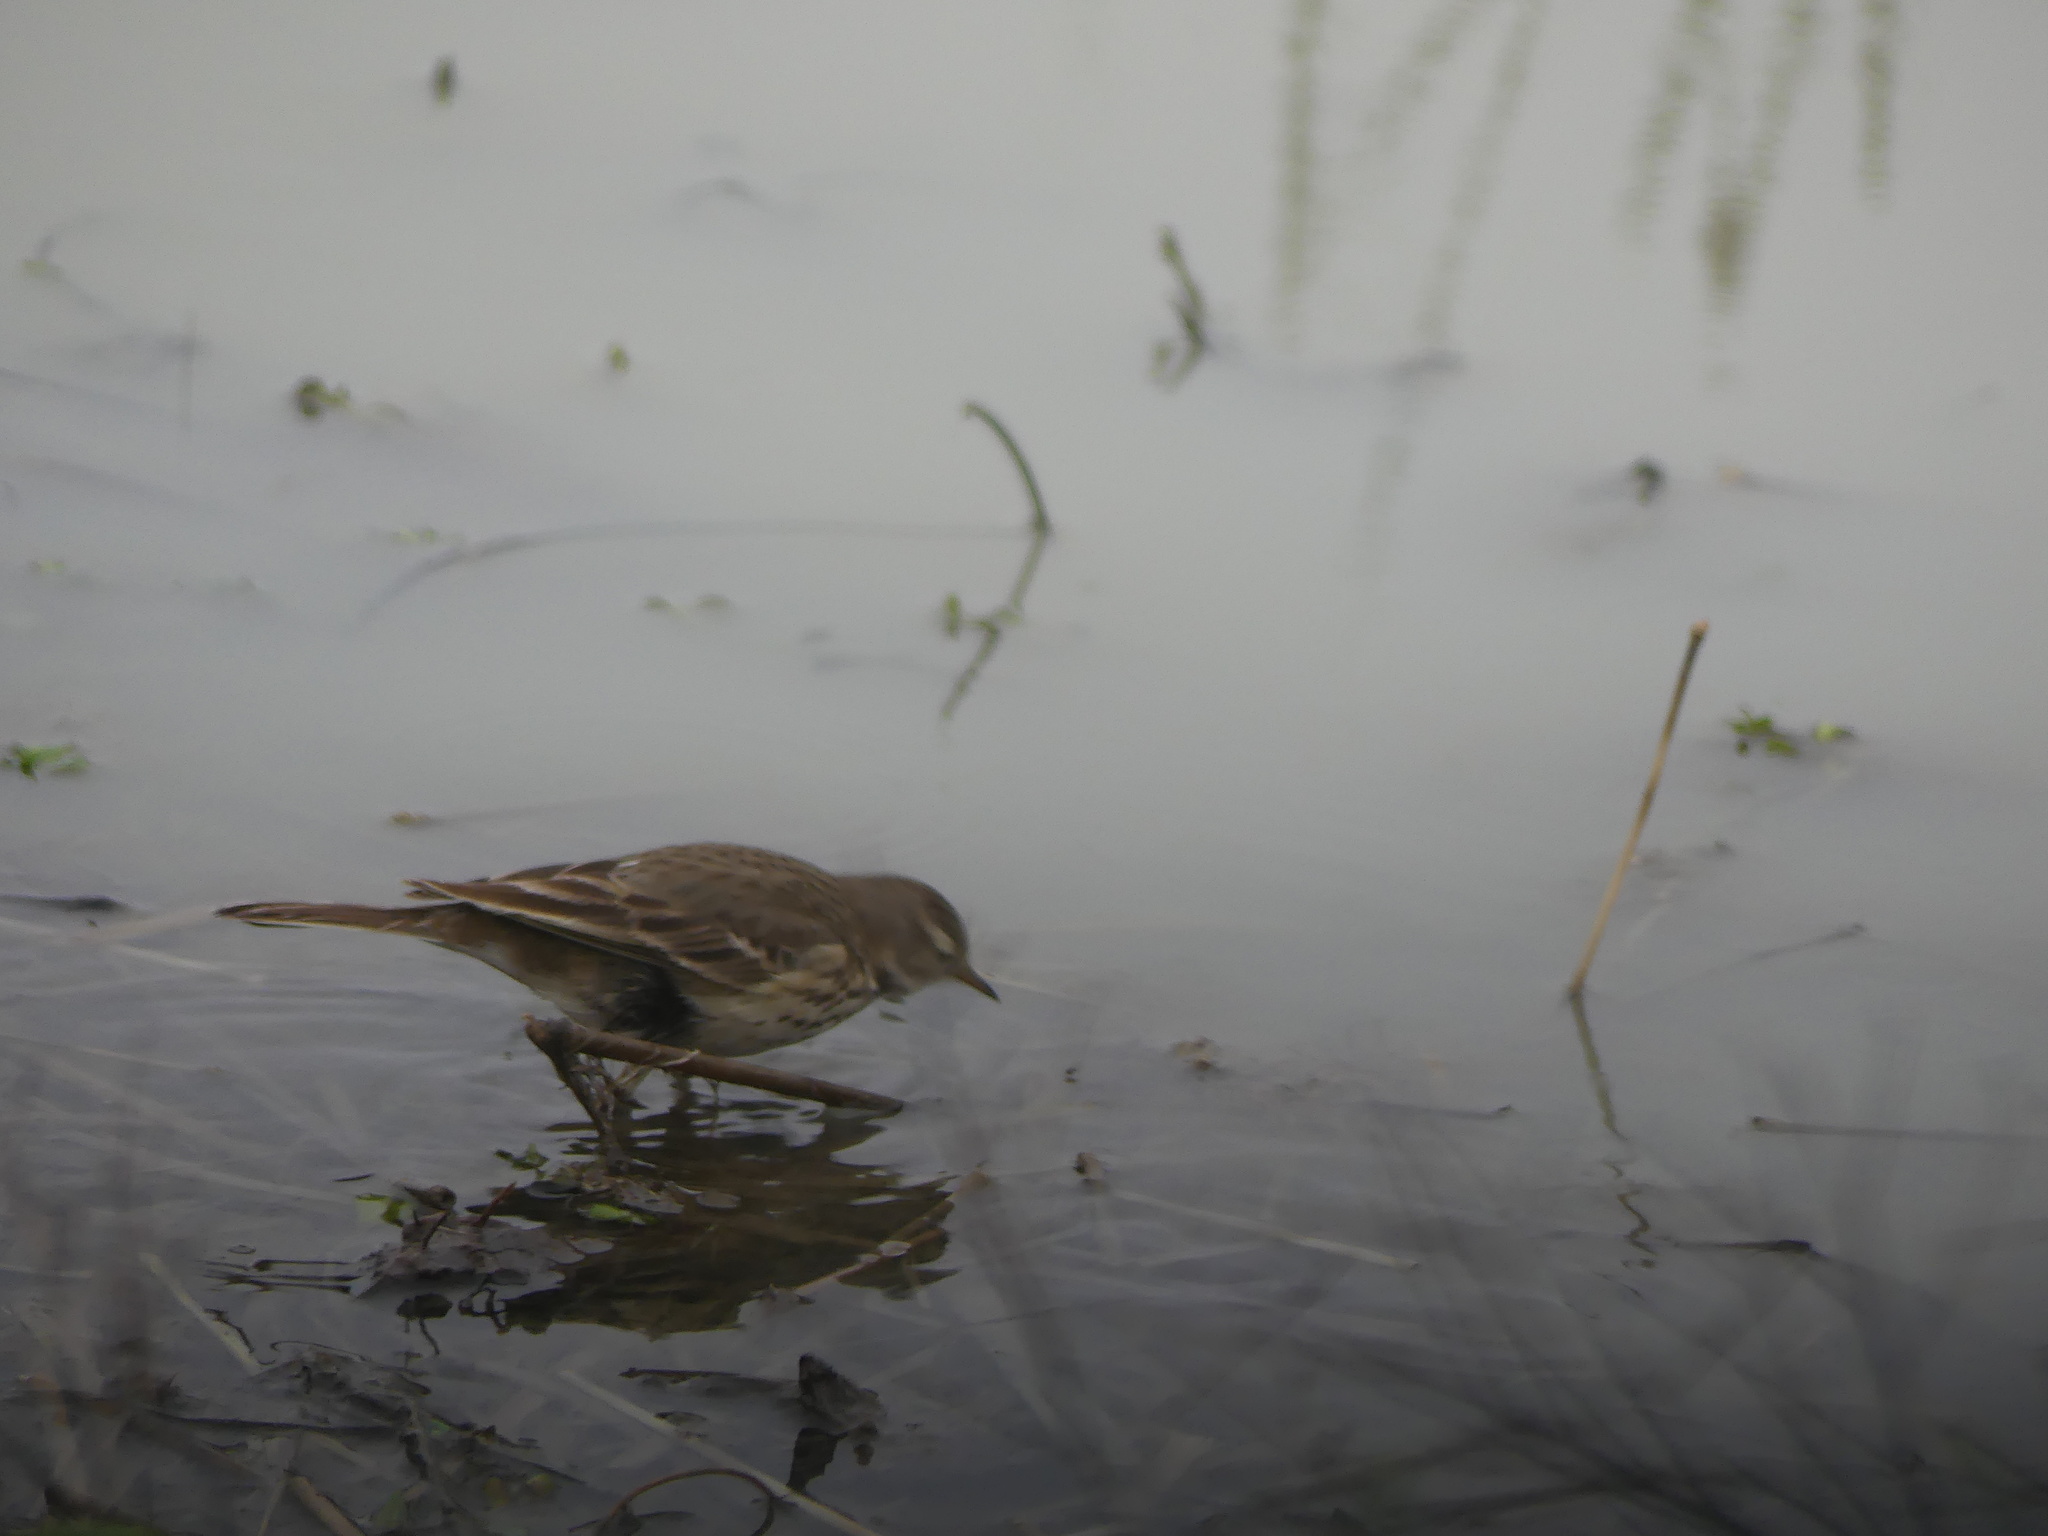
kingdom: Animalia
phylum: Chordata
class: Aves
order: Passeriformes
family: Motacillidae
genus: Anthus
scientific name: Anthus rubescens
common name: Buff-bellied pipit
